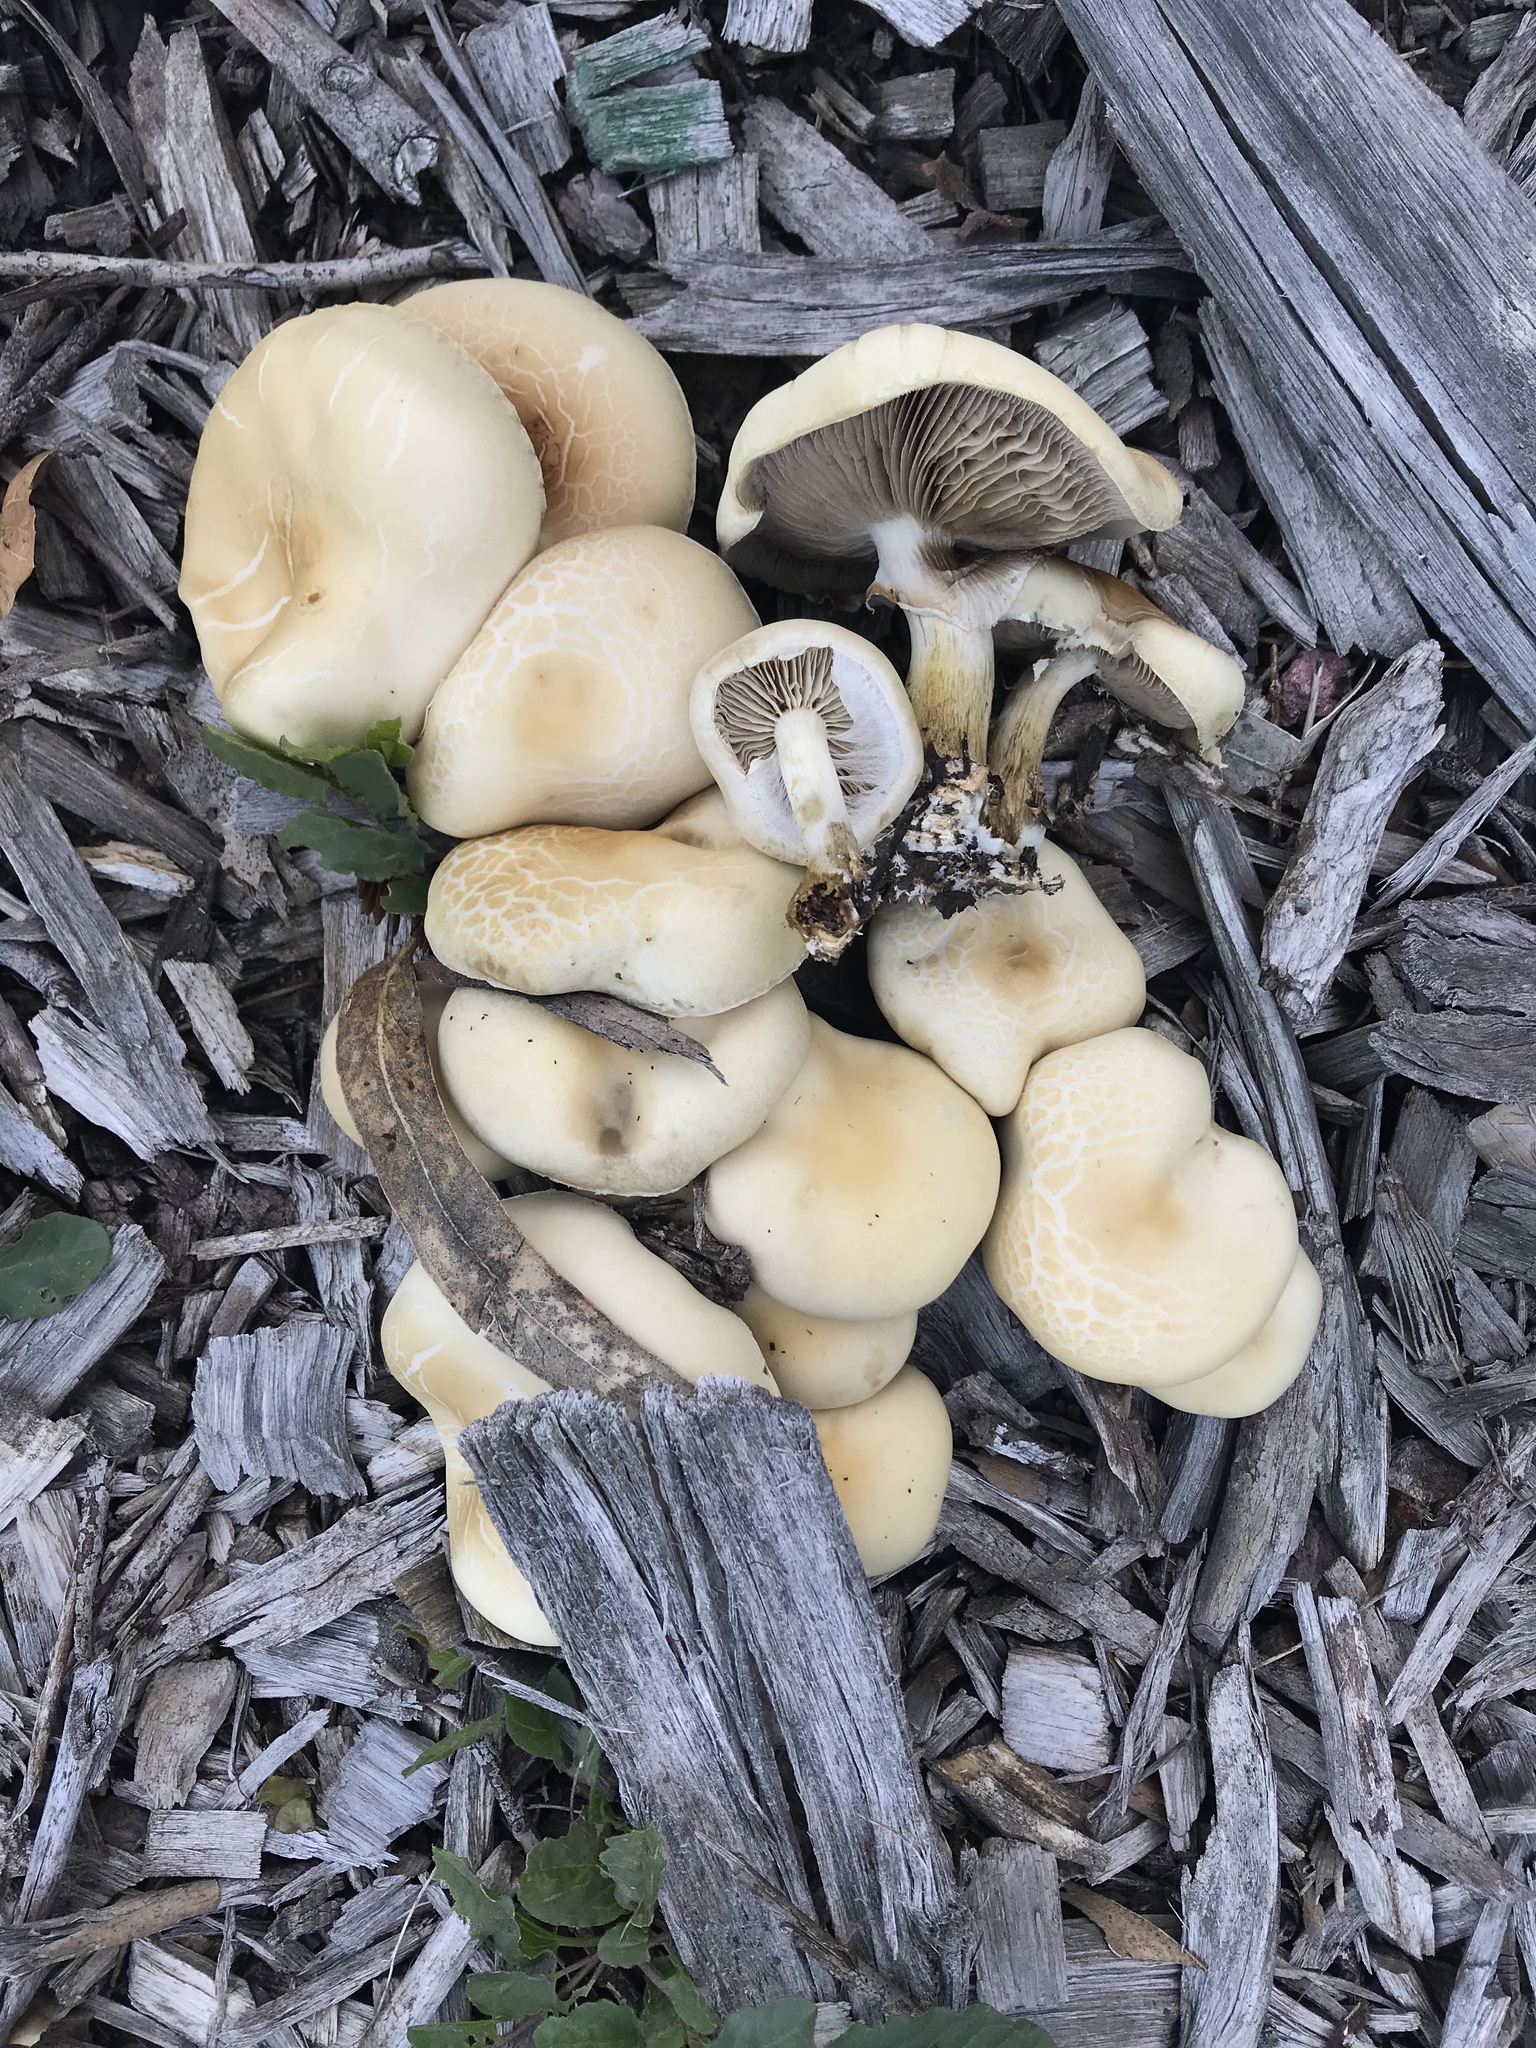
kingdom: Fungi
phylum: Basidiomycota
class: Agaricomycetes
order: Agaricales
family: Strophariaceae
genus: Agrocybe
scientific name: Agrocybe praecox
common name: Spring fieldcap
